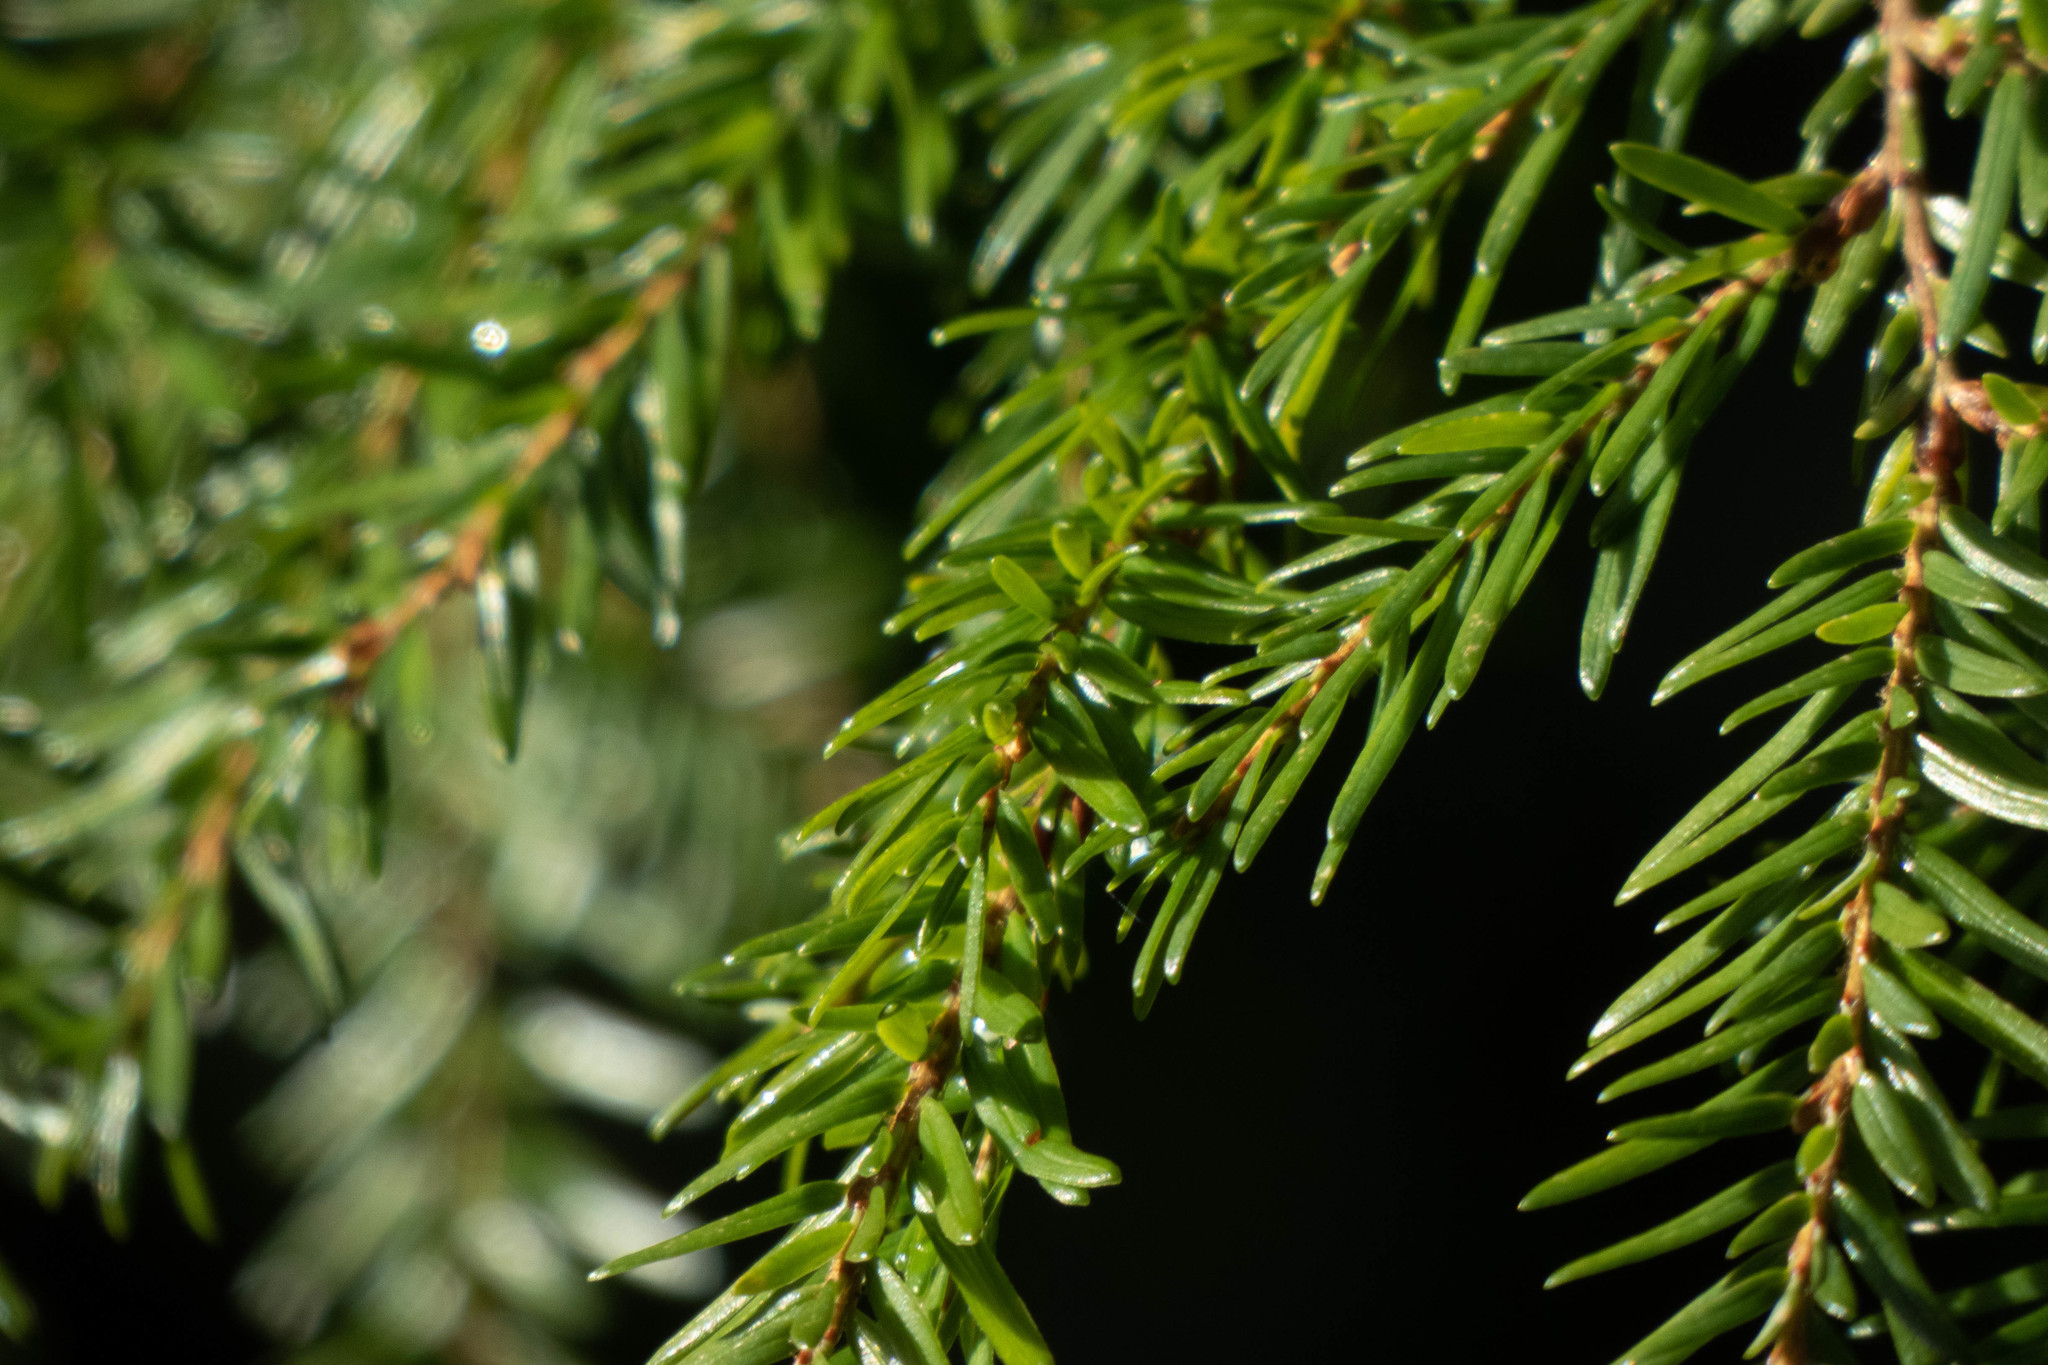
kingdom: Plantae
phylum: Tracheophyta
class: Pinopsida
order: Pinales
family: Pinaceae
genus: Tsuga
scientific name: Tsuga heterophylla
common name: Western hemlock
